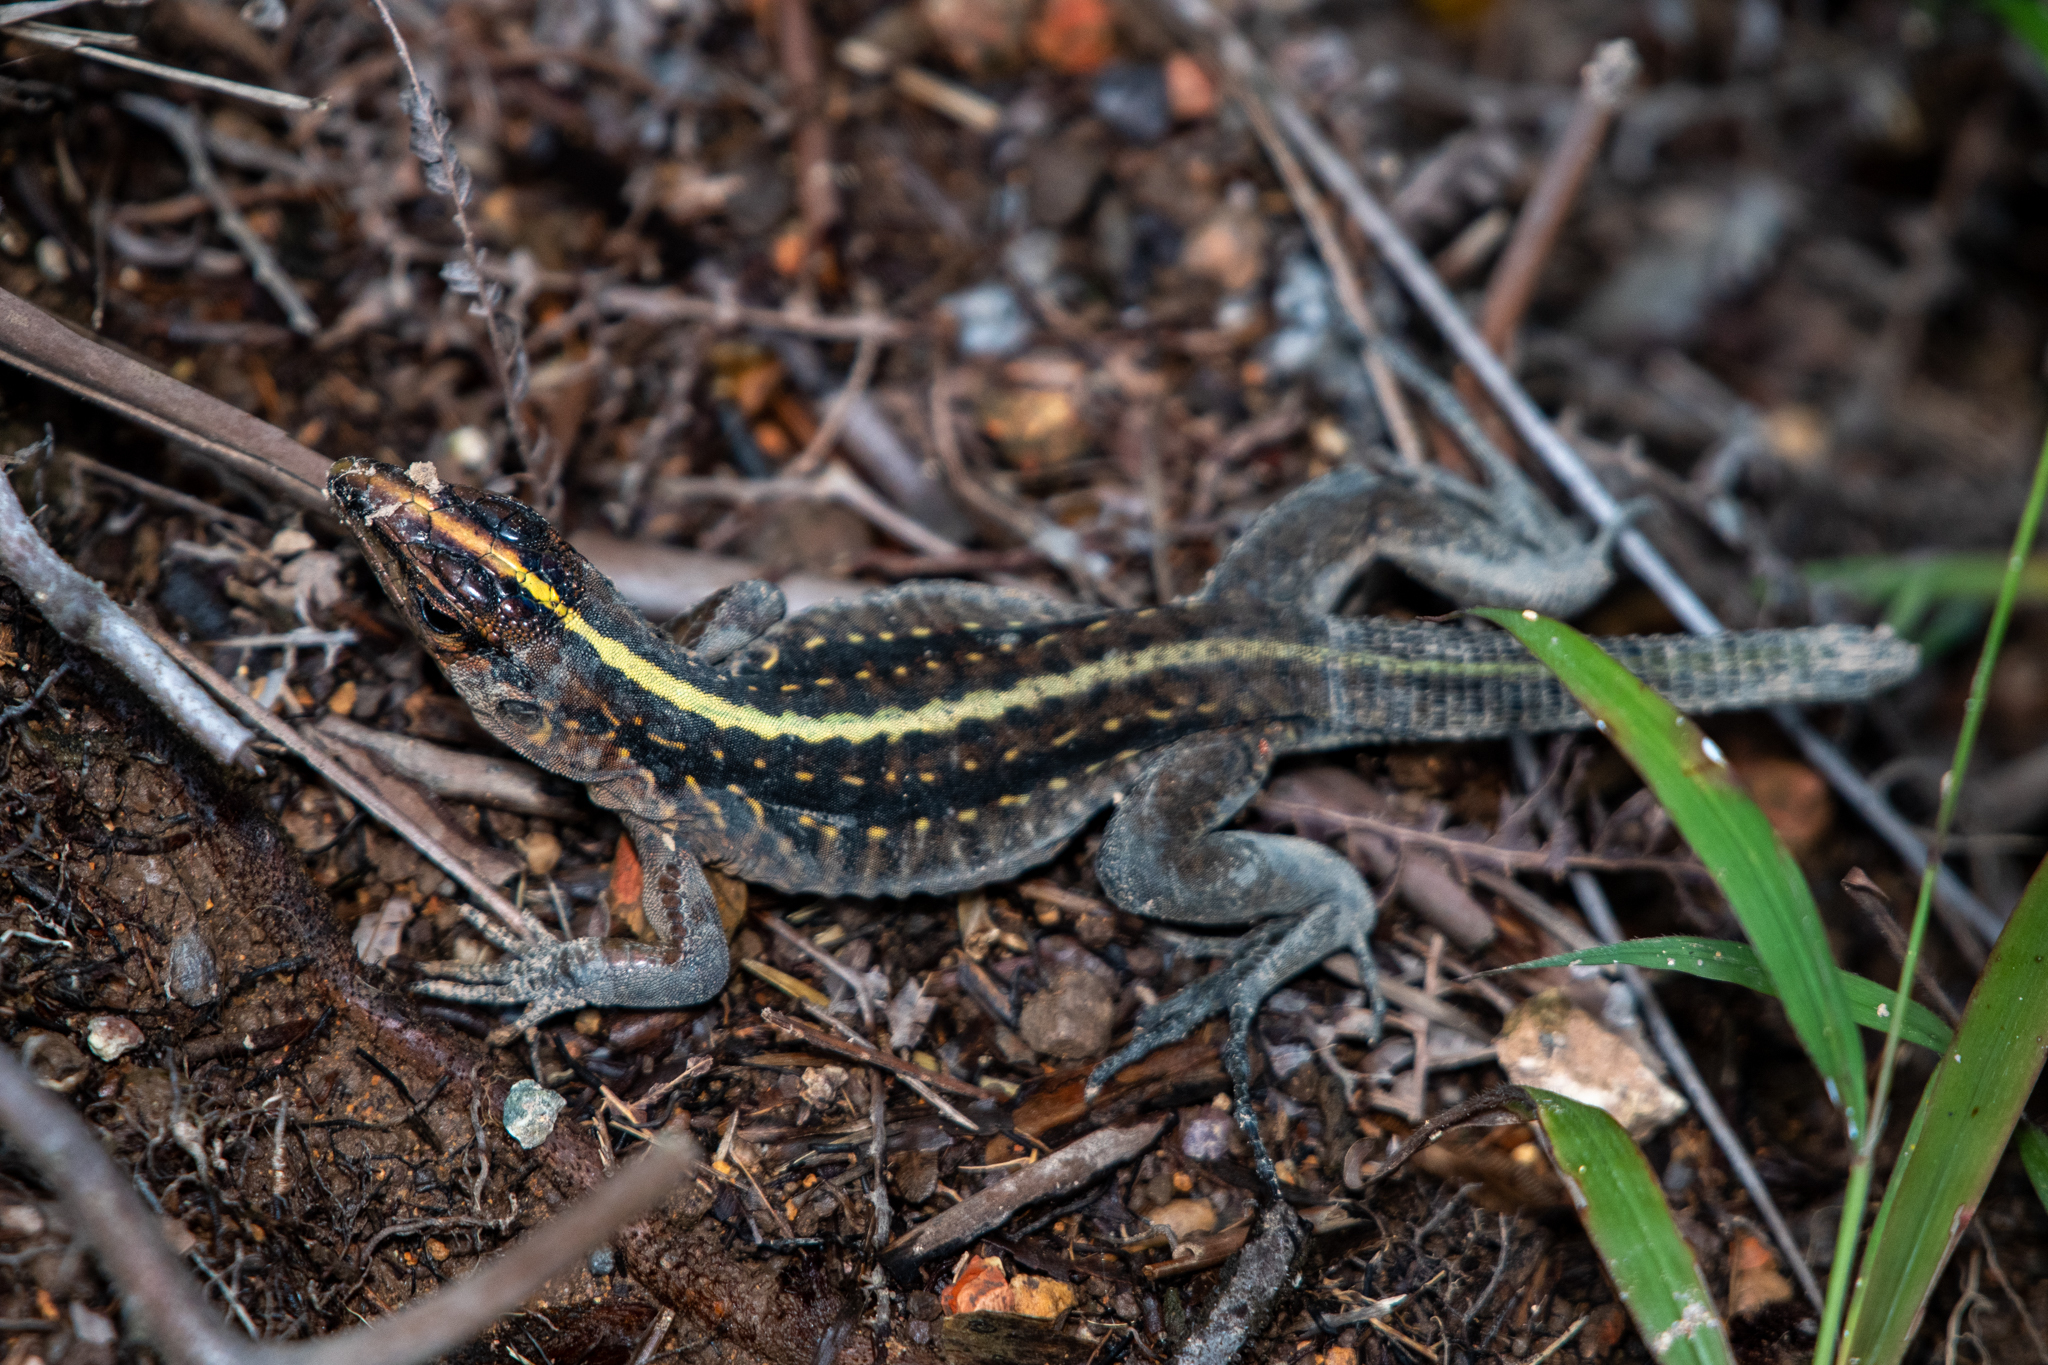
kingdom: Animalia
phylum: Chordata
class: Squamata
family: Teiidae
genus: Holcosus
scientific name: Holcosus festivus
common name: Middle american ameiva
